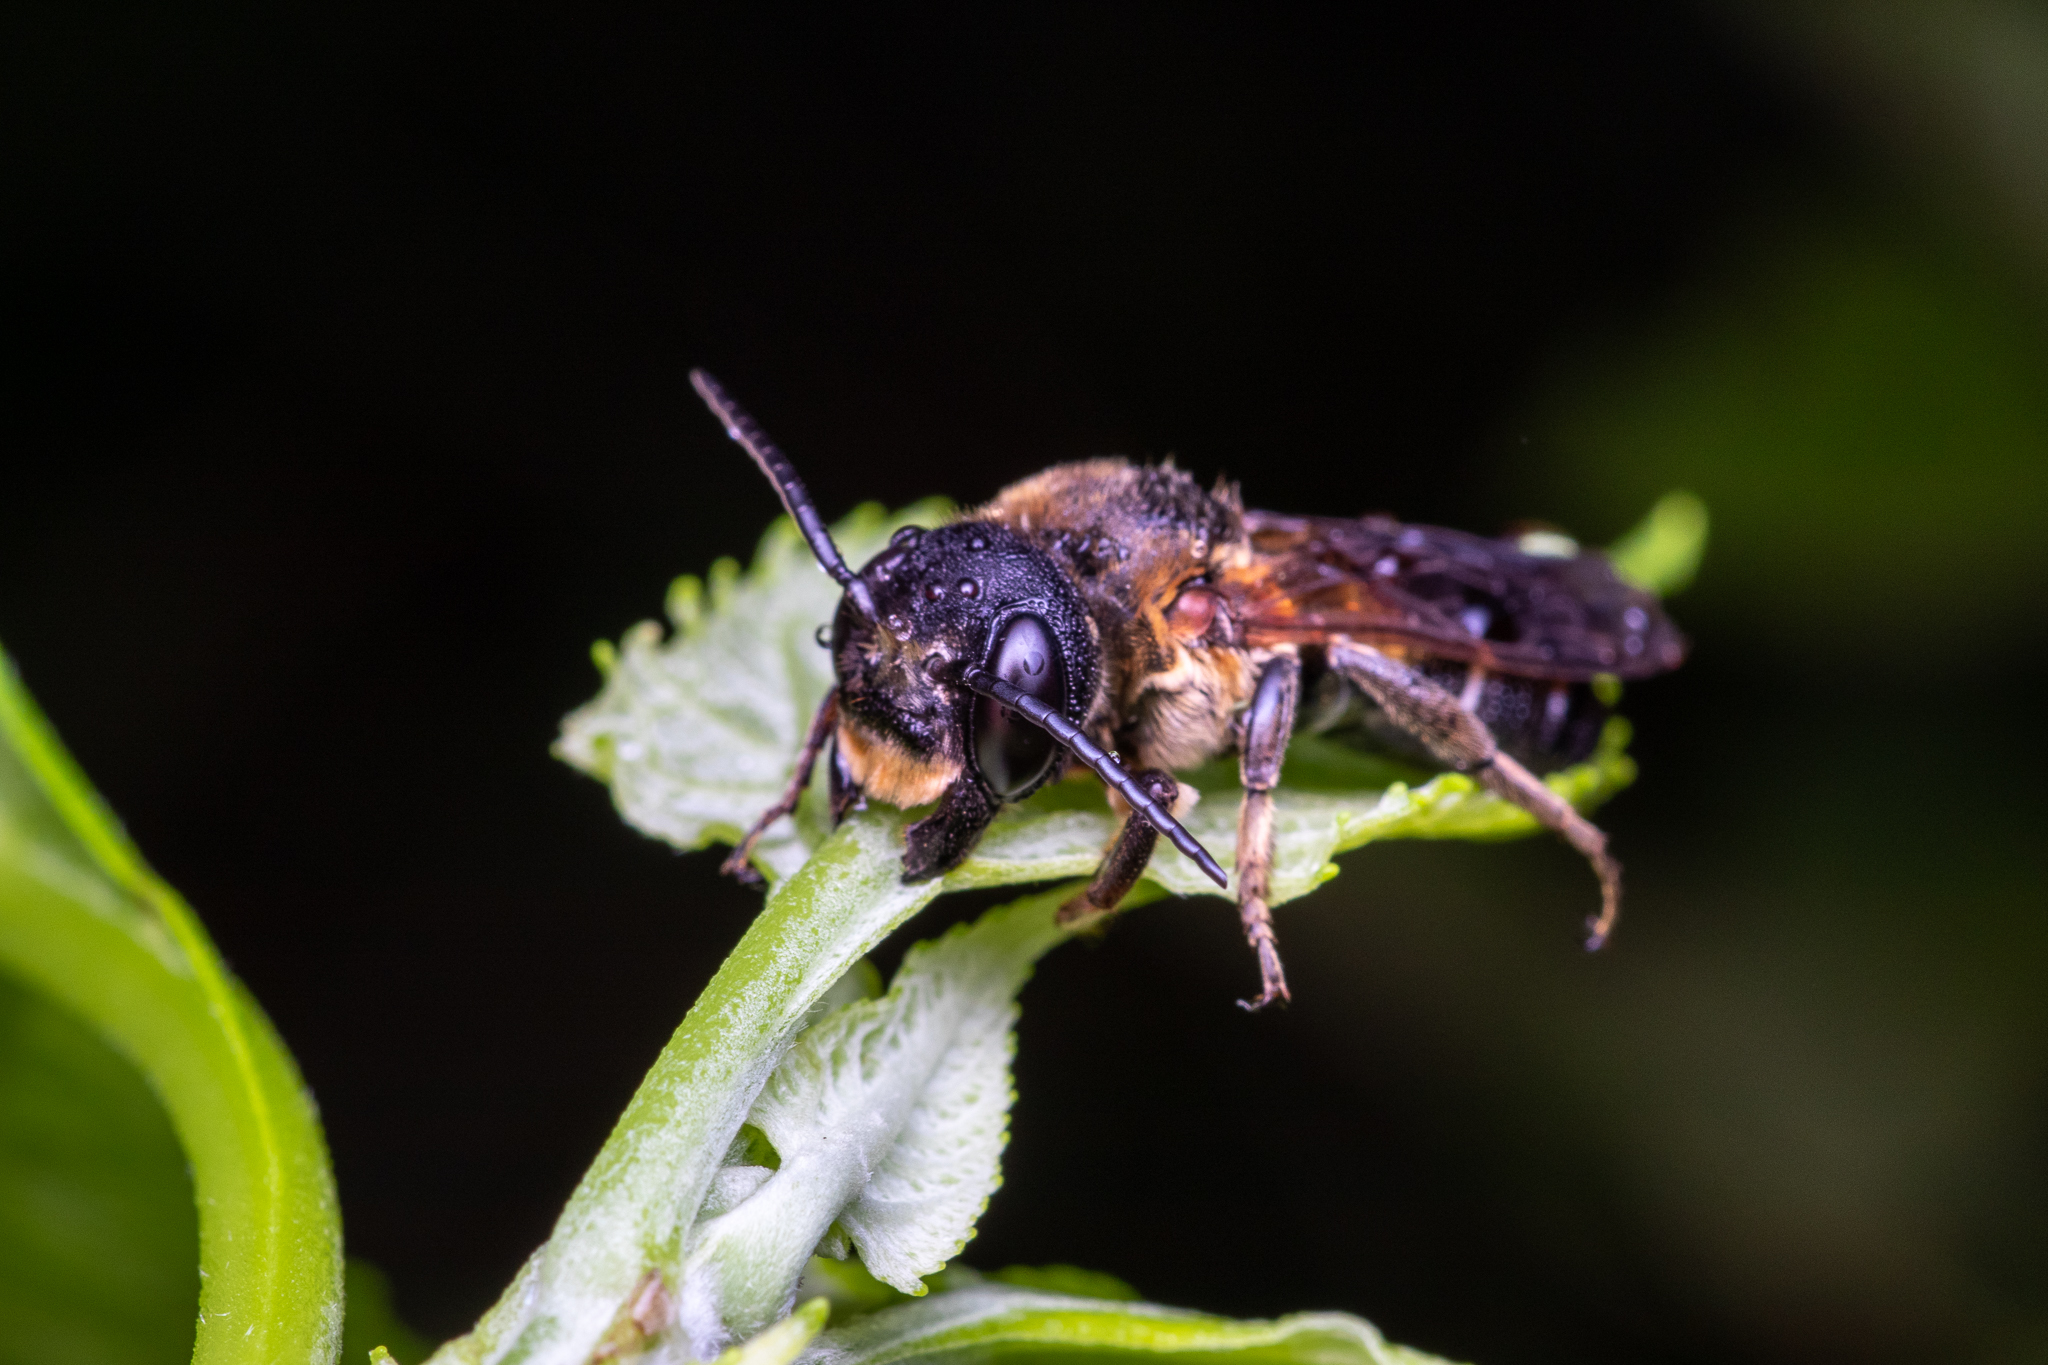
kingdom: Animalia
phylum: Arthropoda
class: Insecta
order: Hymenoptera
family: Megachilidae
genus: Megachile
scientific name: Megachile sculpturalis
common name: Sculptured resin bee
